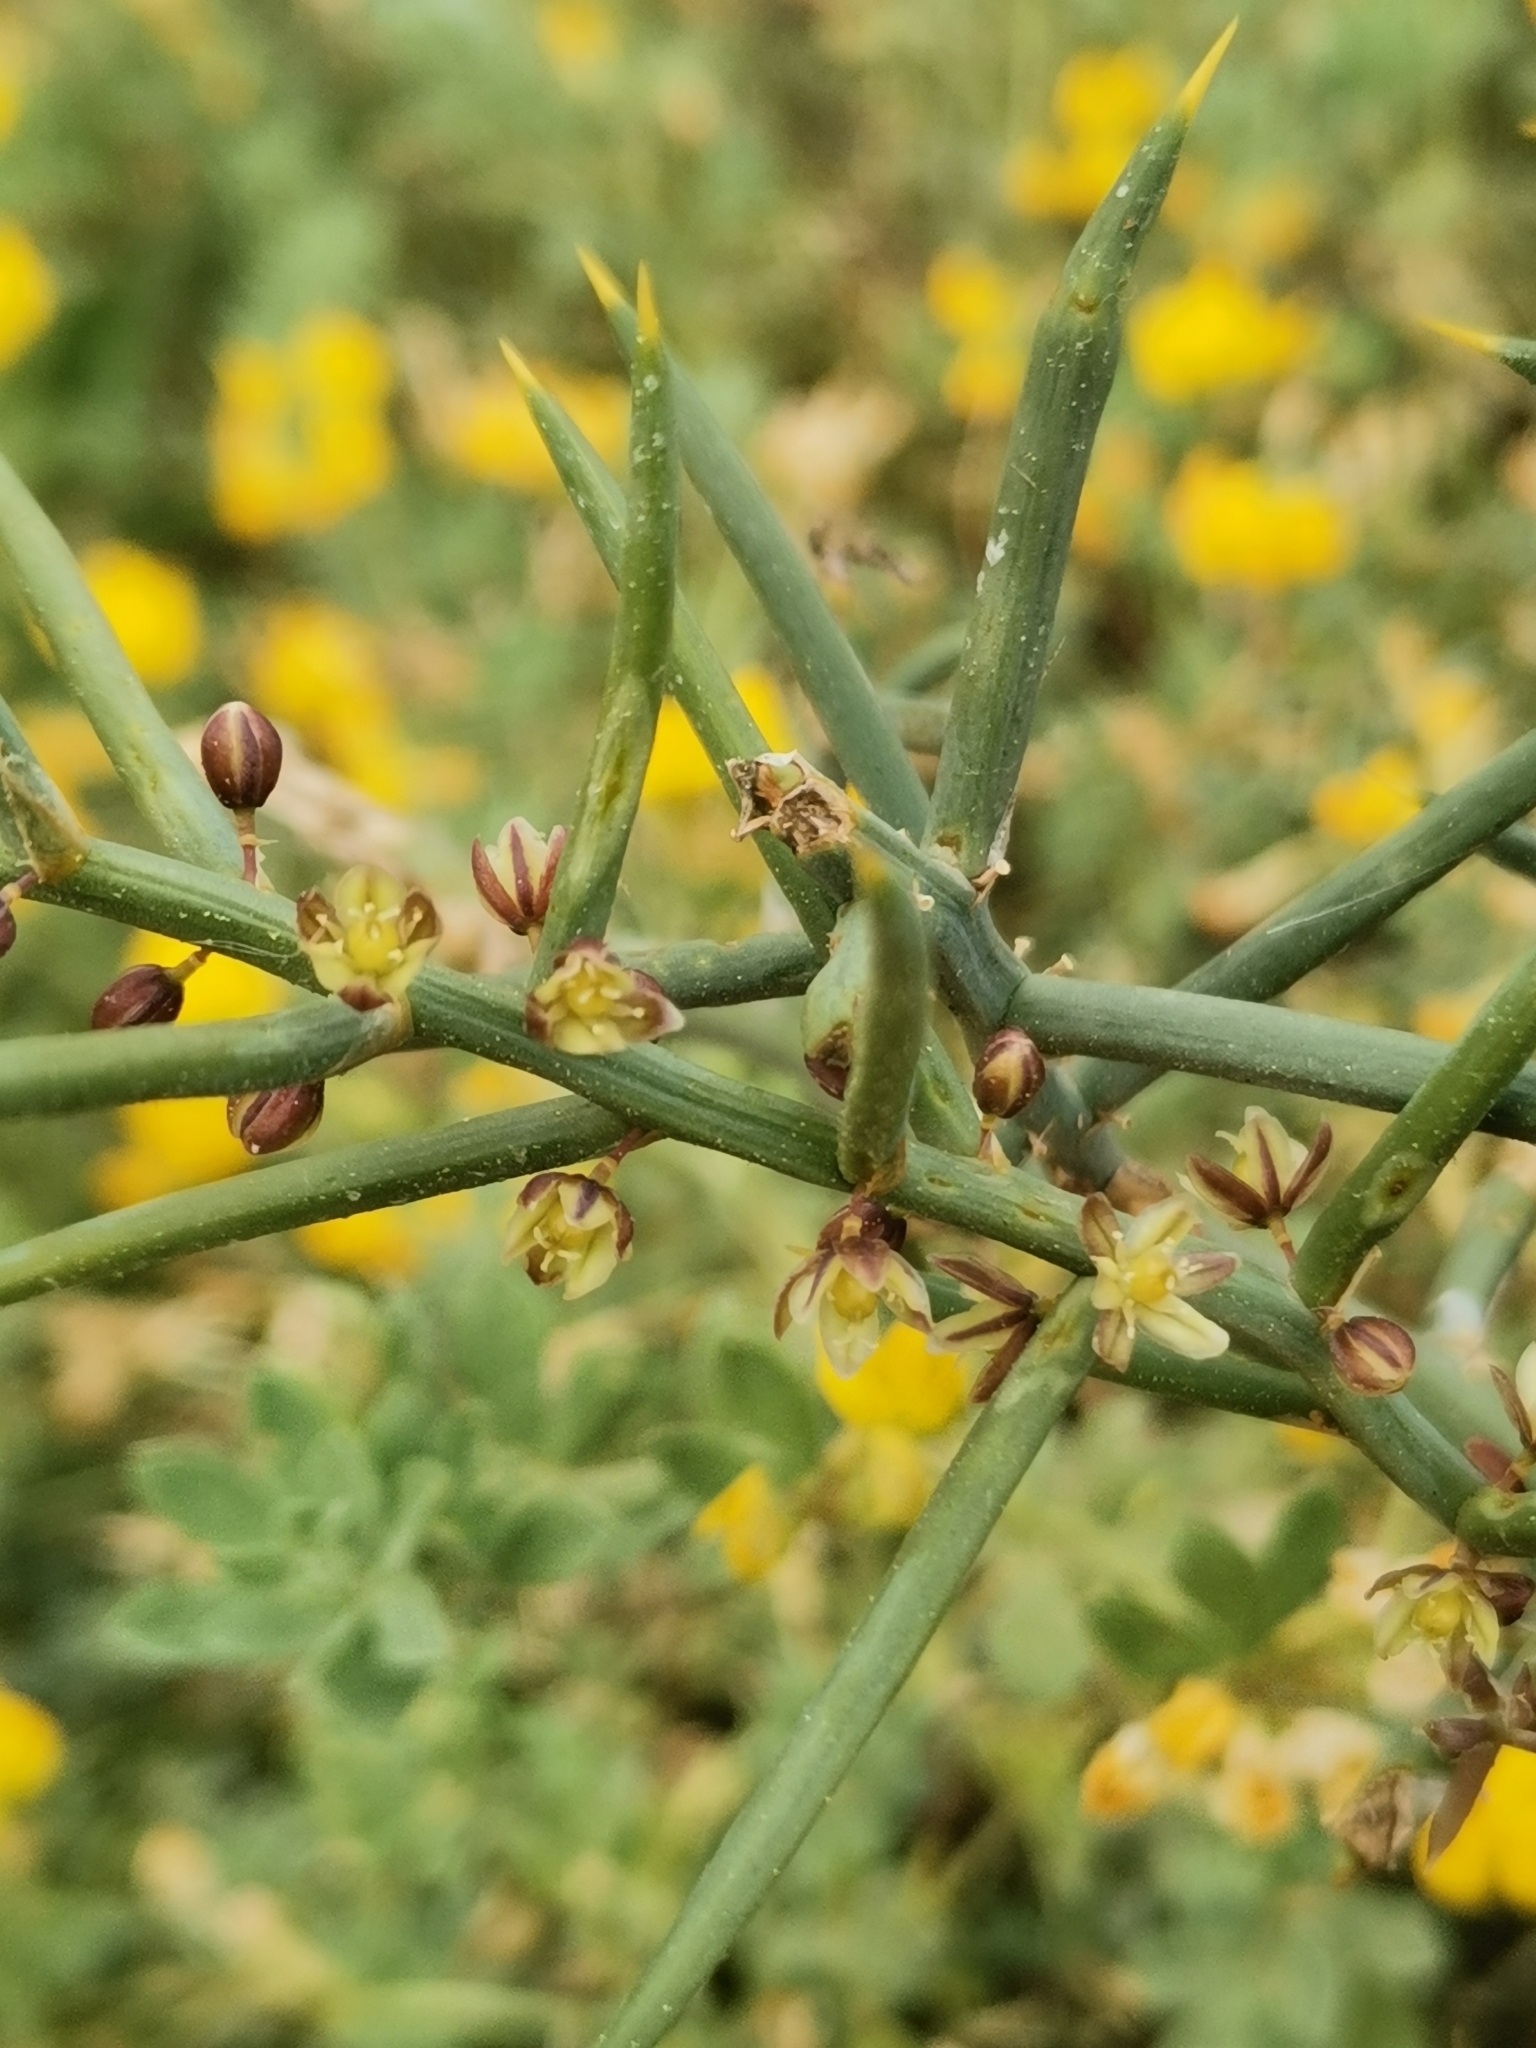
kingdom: Plantae
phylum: Tracheophyta
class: Liliopsida
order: Asparagales
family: Asparagaceae
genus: Asparagus
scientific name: Asparagus horridus
